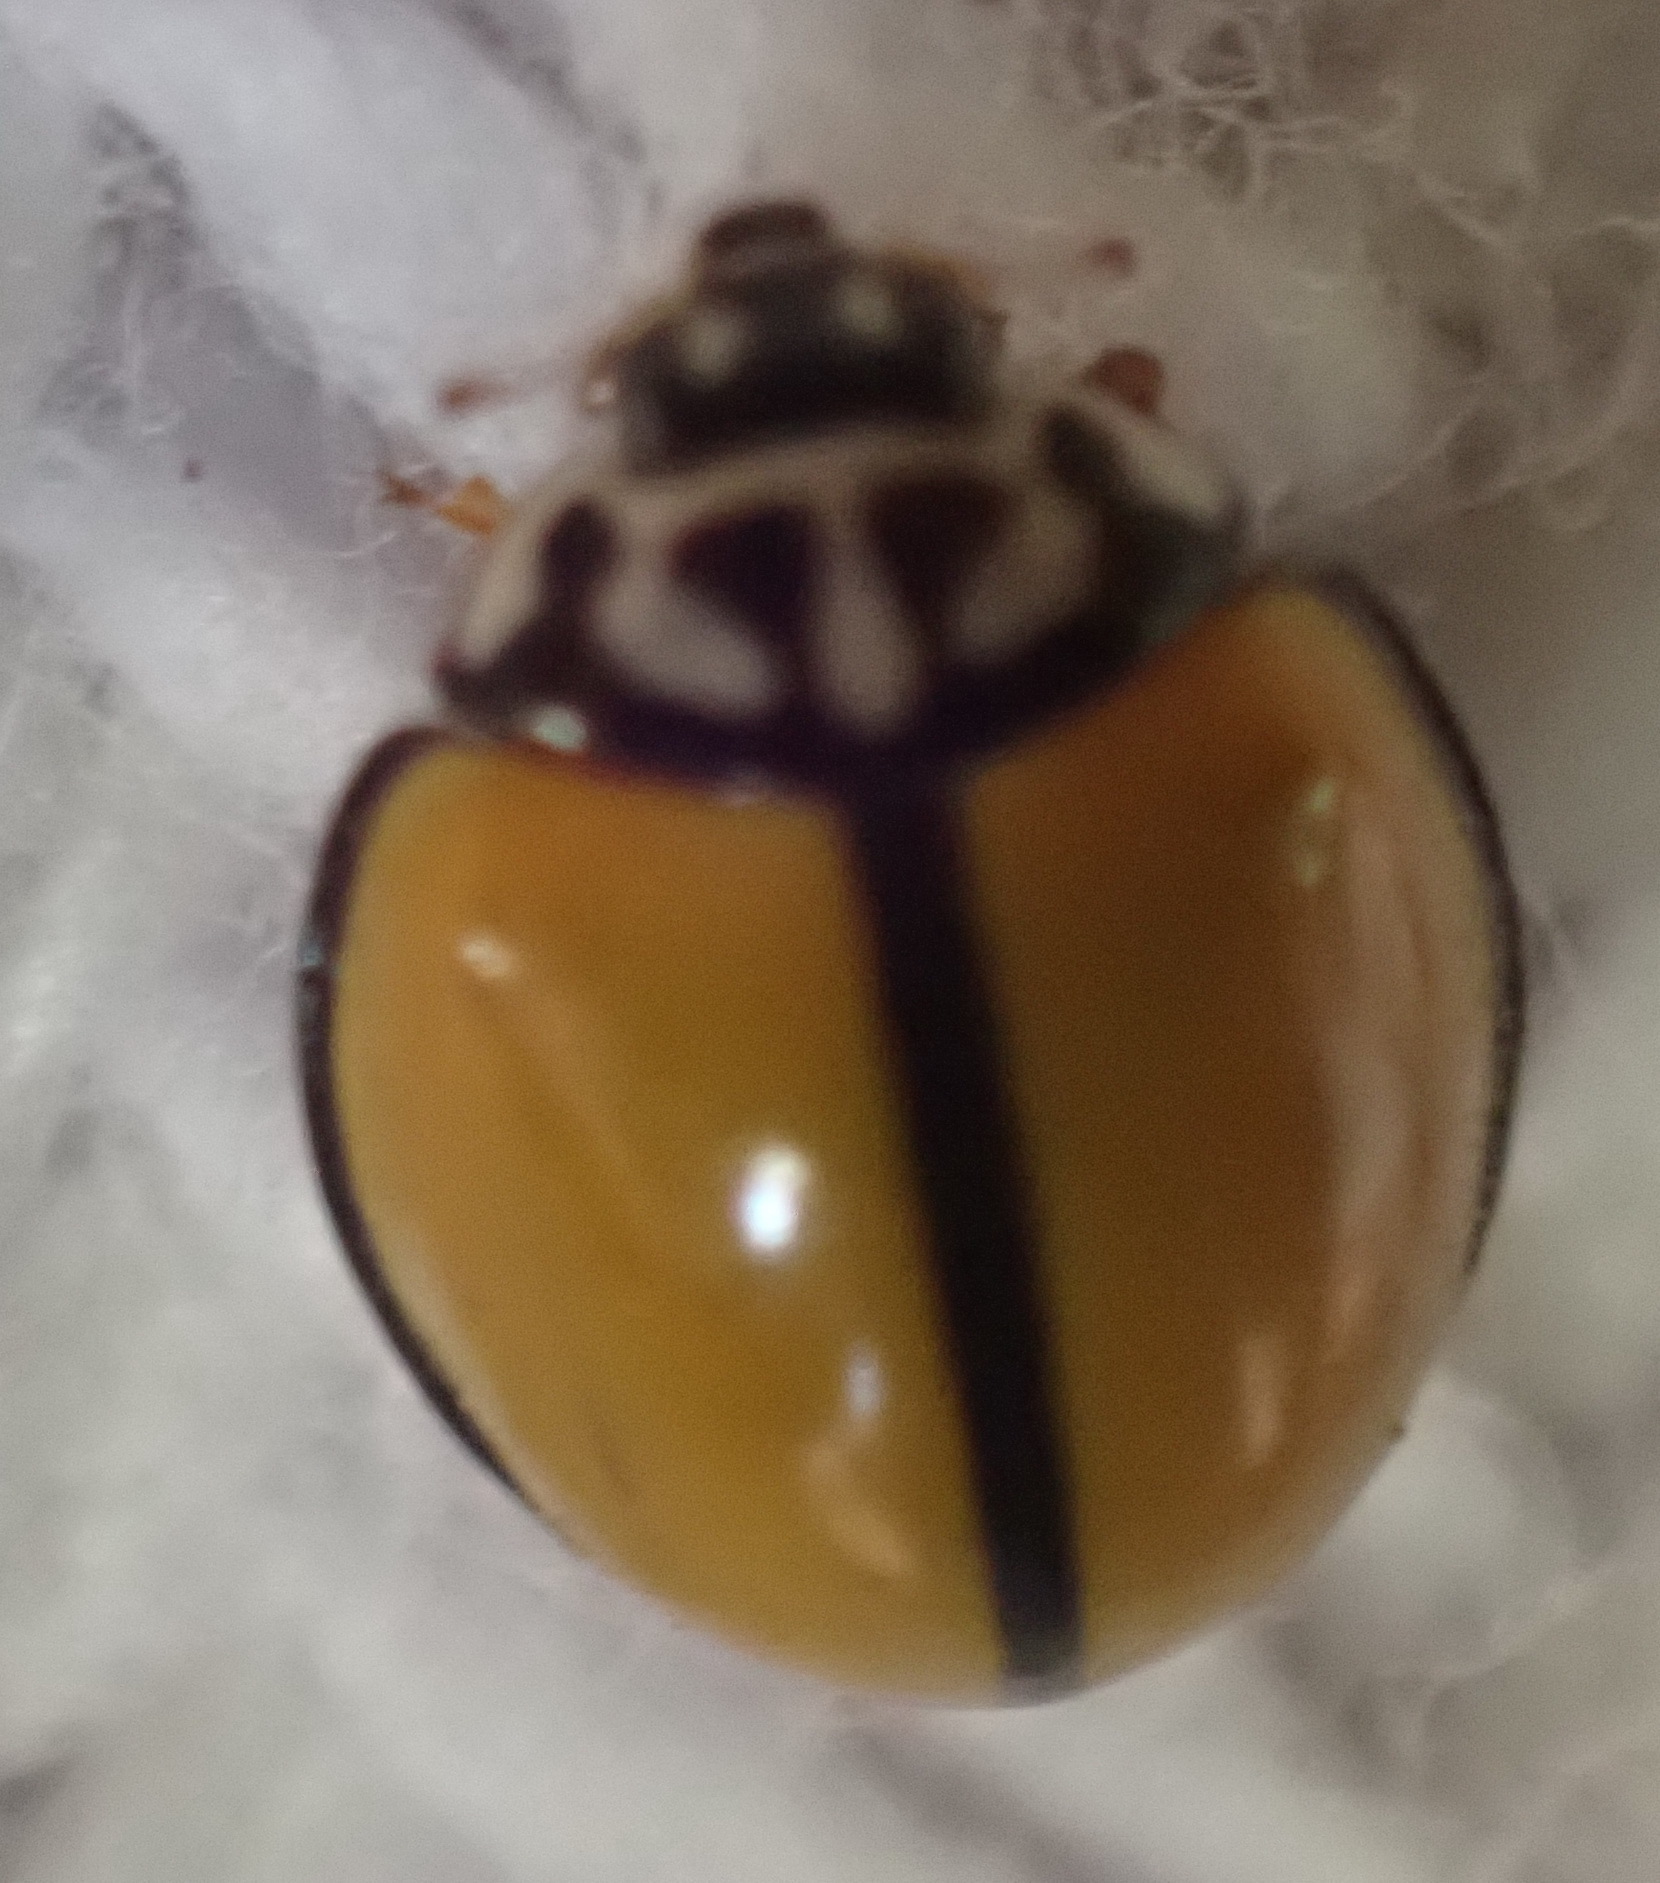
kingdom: Animalia
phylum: Arthropoda
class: Insecta
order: Coleoptera
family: Coccinellidae
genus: Oenopia
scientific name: Oenopia
